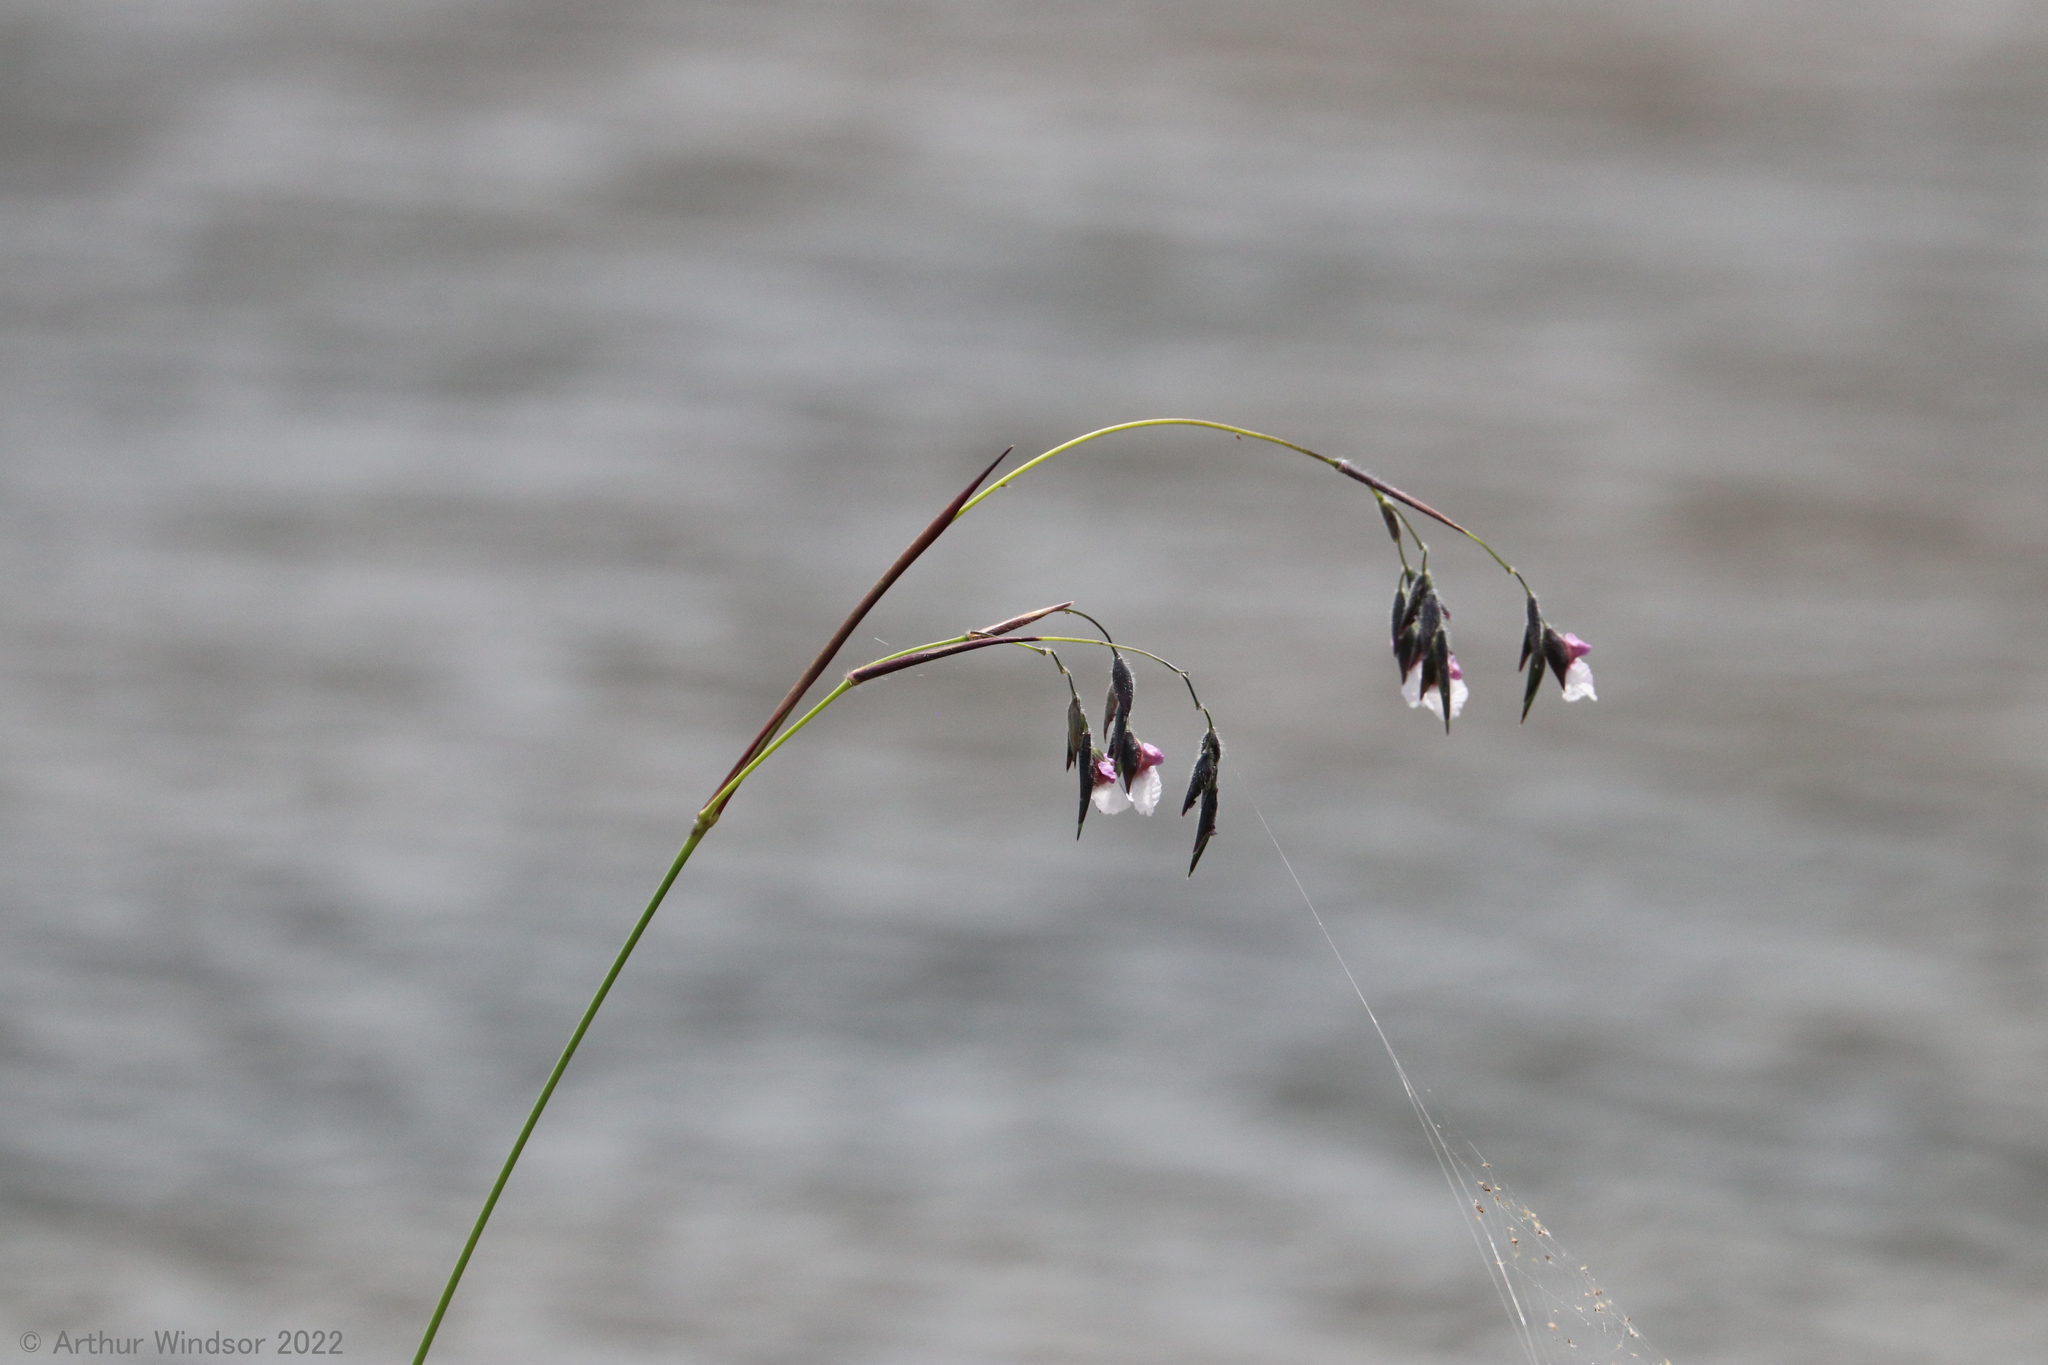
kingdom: Plantae
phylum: Tracheophyta
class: Liliopsida
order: Zingiberales
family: Marantaceae
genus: Thalia
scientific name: Thalia geniculata
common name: Arrowroot
